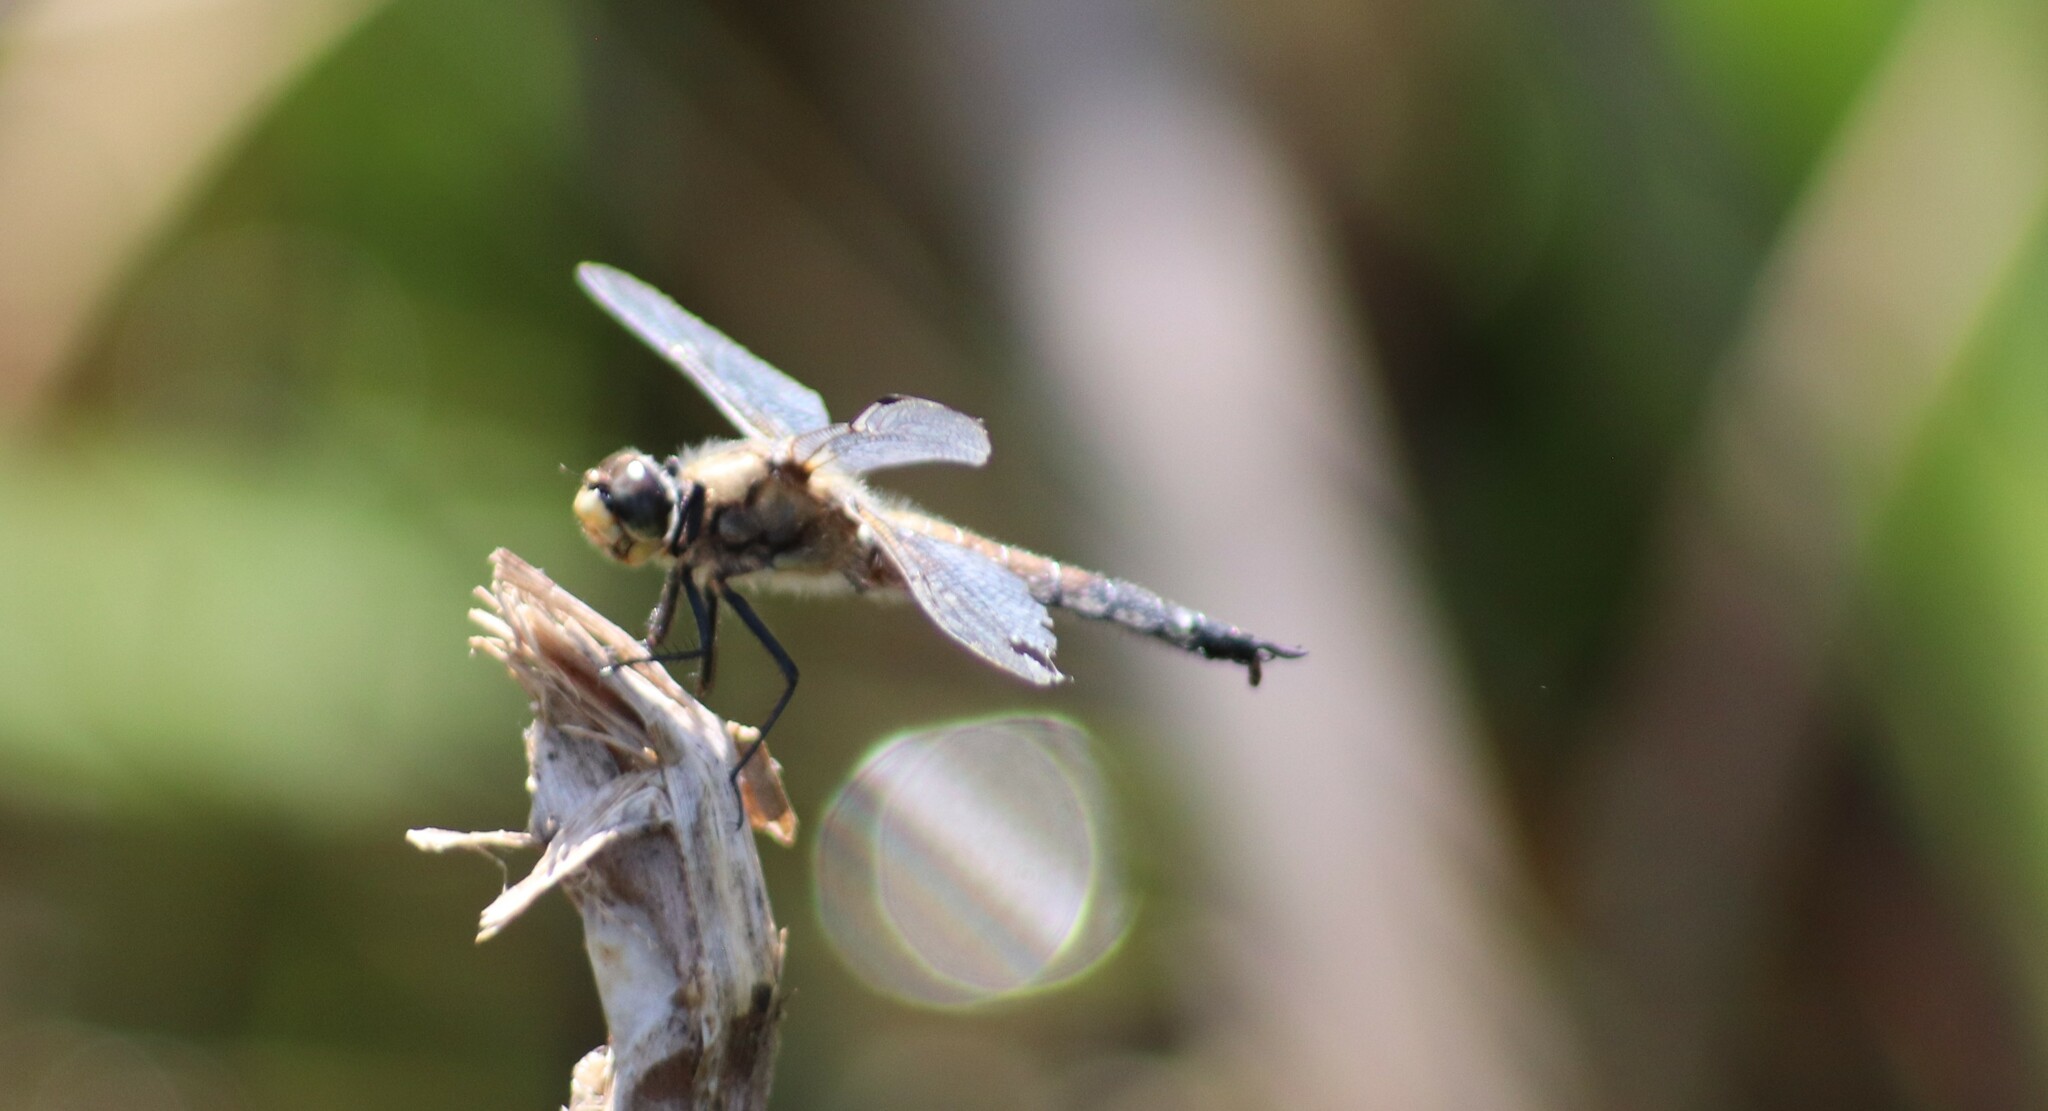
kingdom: Animalia
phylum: Arthropoda
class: Insecta
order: Odonata
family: Libellulidae
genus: Libellula
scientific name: Libellula quadrimaculata
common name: Four-spotted chaser
